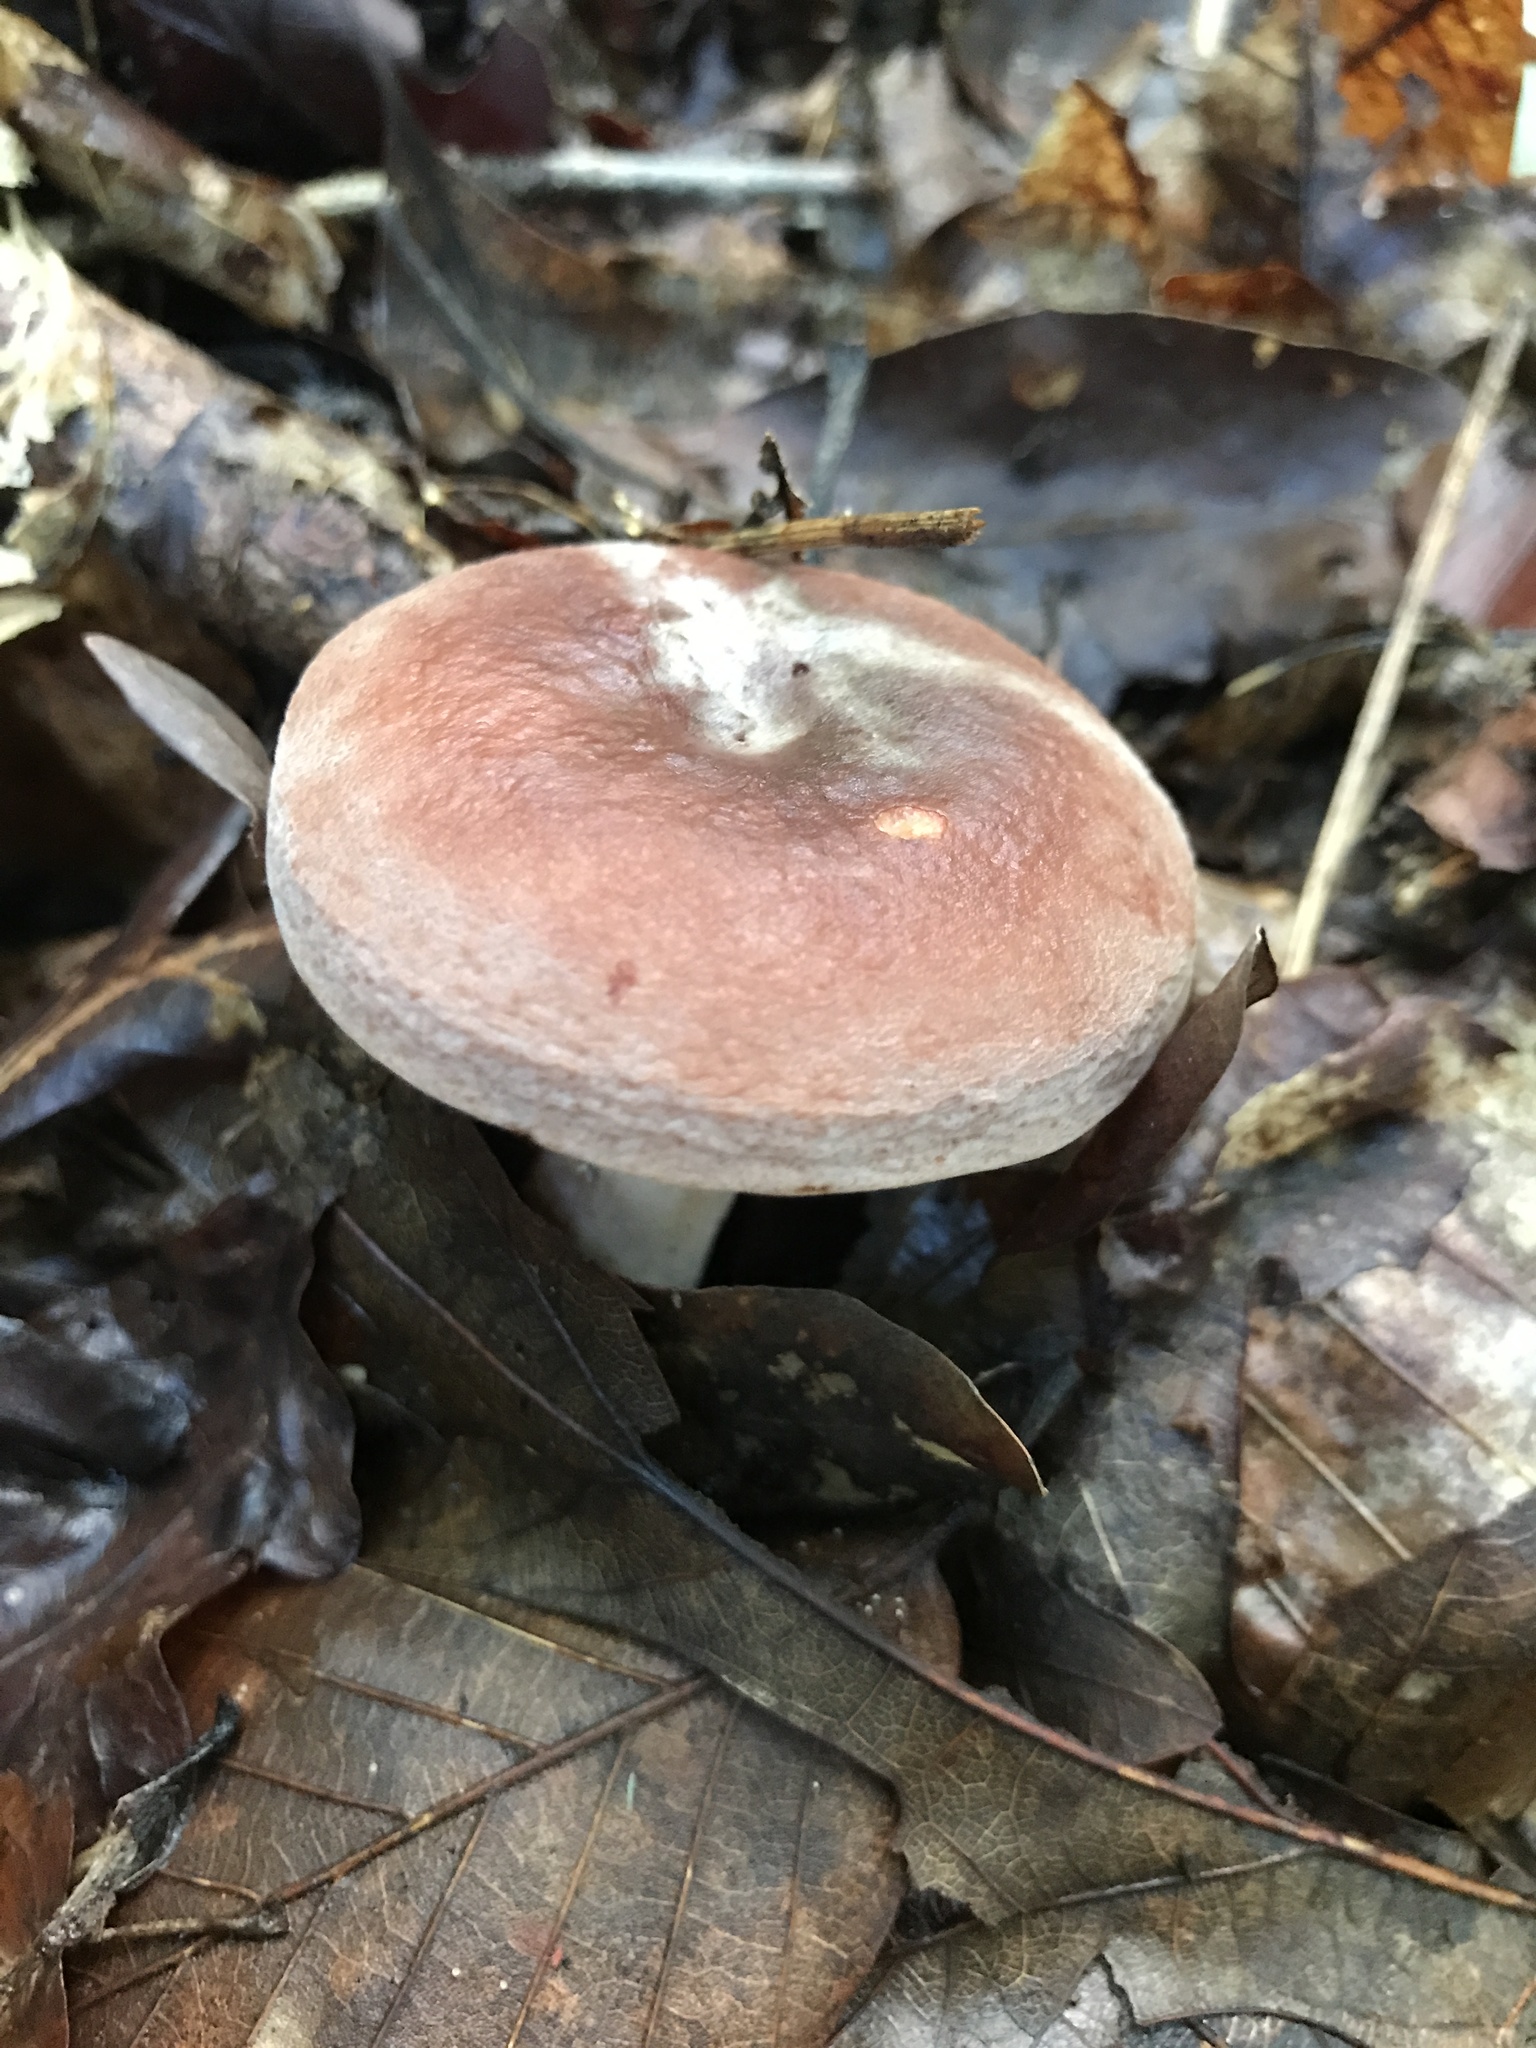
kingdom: Fungi
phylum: Basidiomycota
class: Agaricomycetes
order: Russulales
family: Russulaceae
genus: Lactarius
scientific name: Lactarius corrugis
